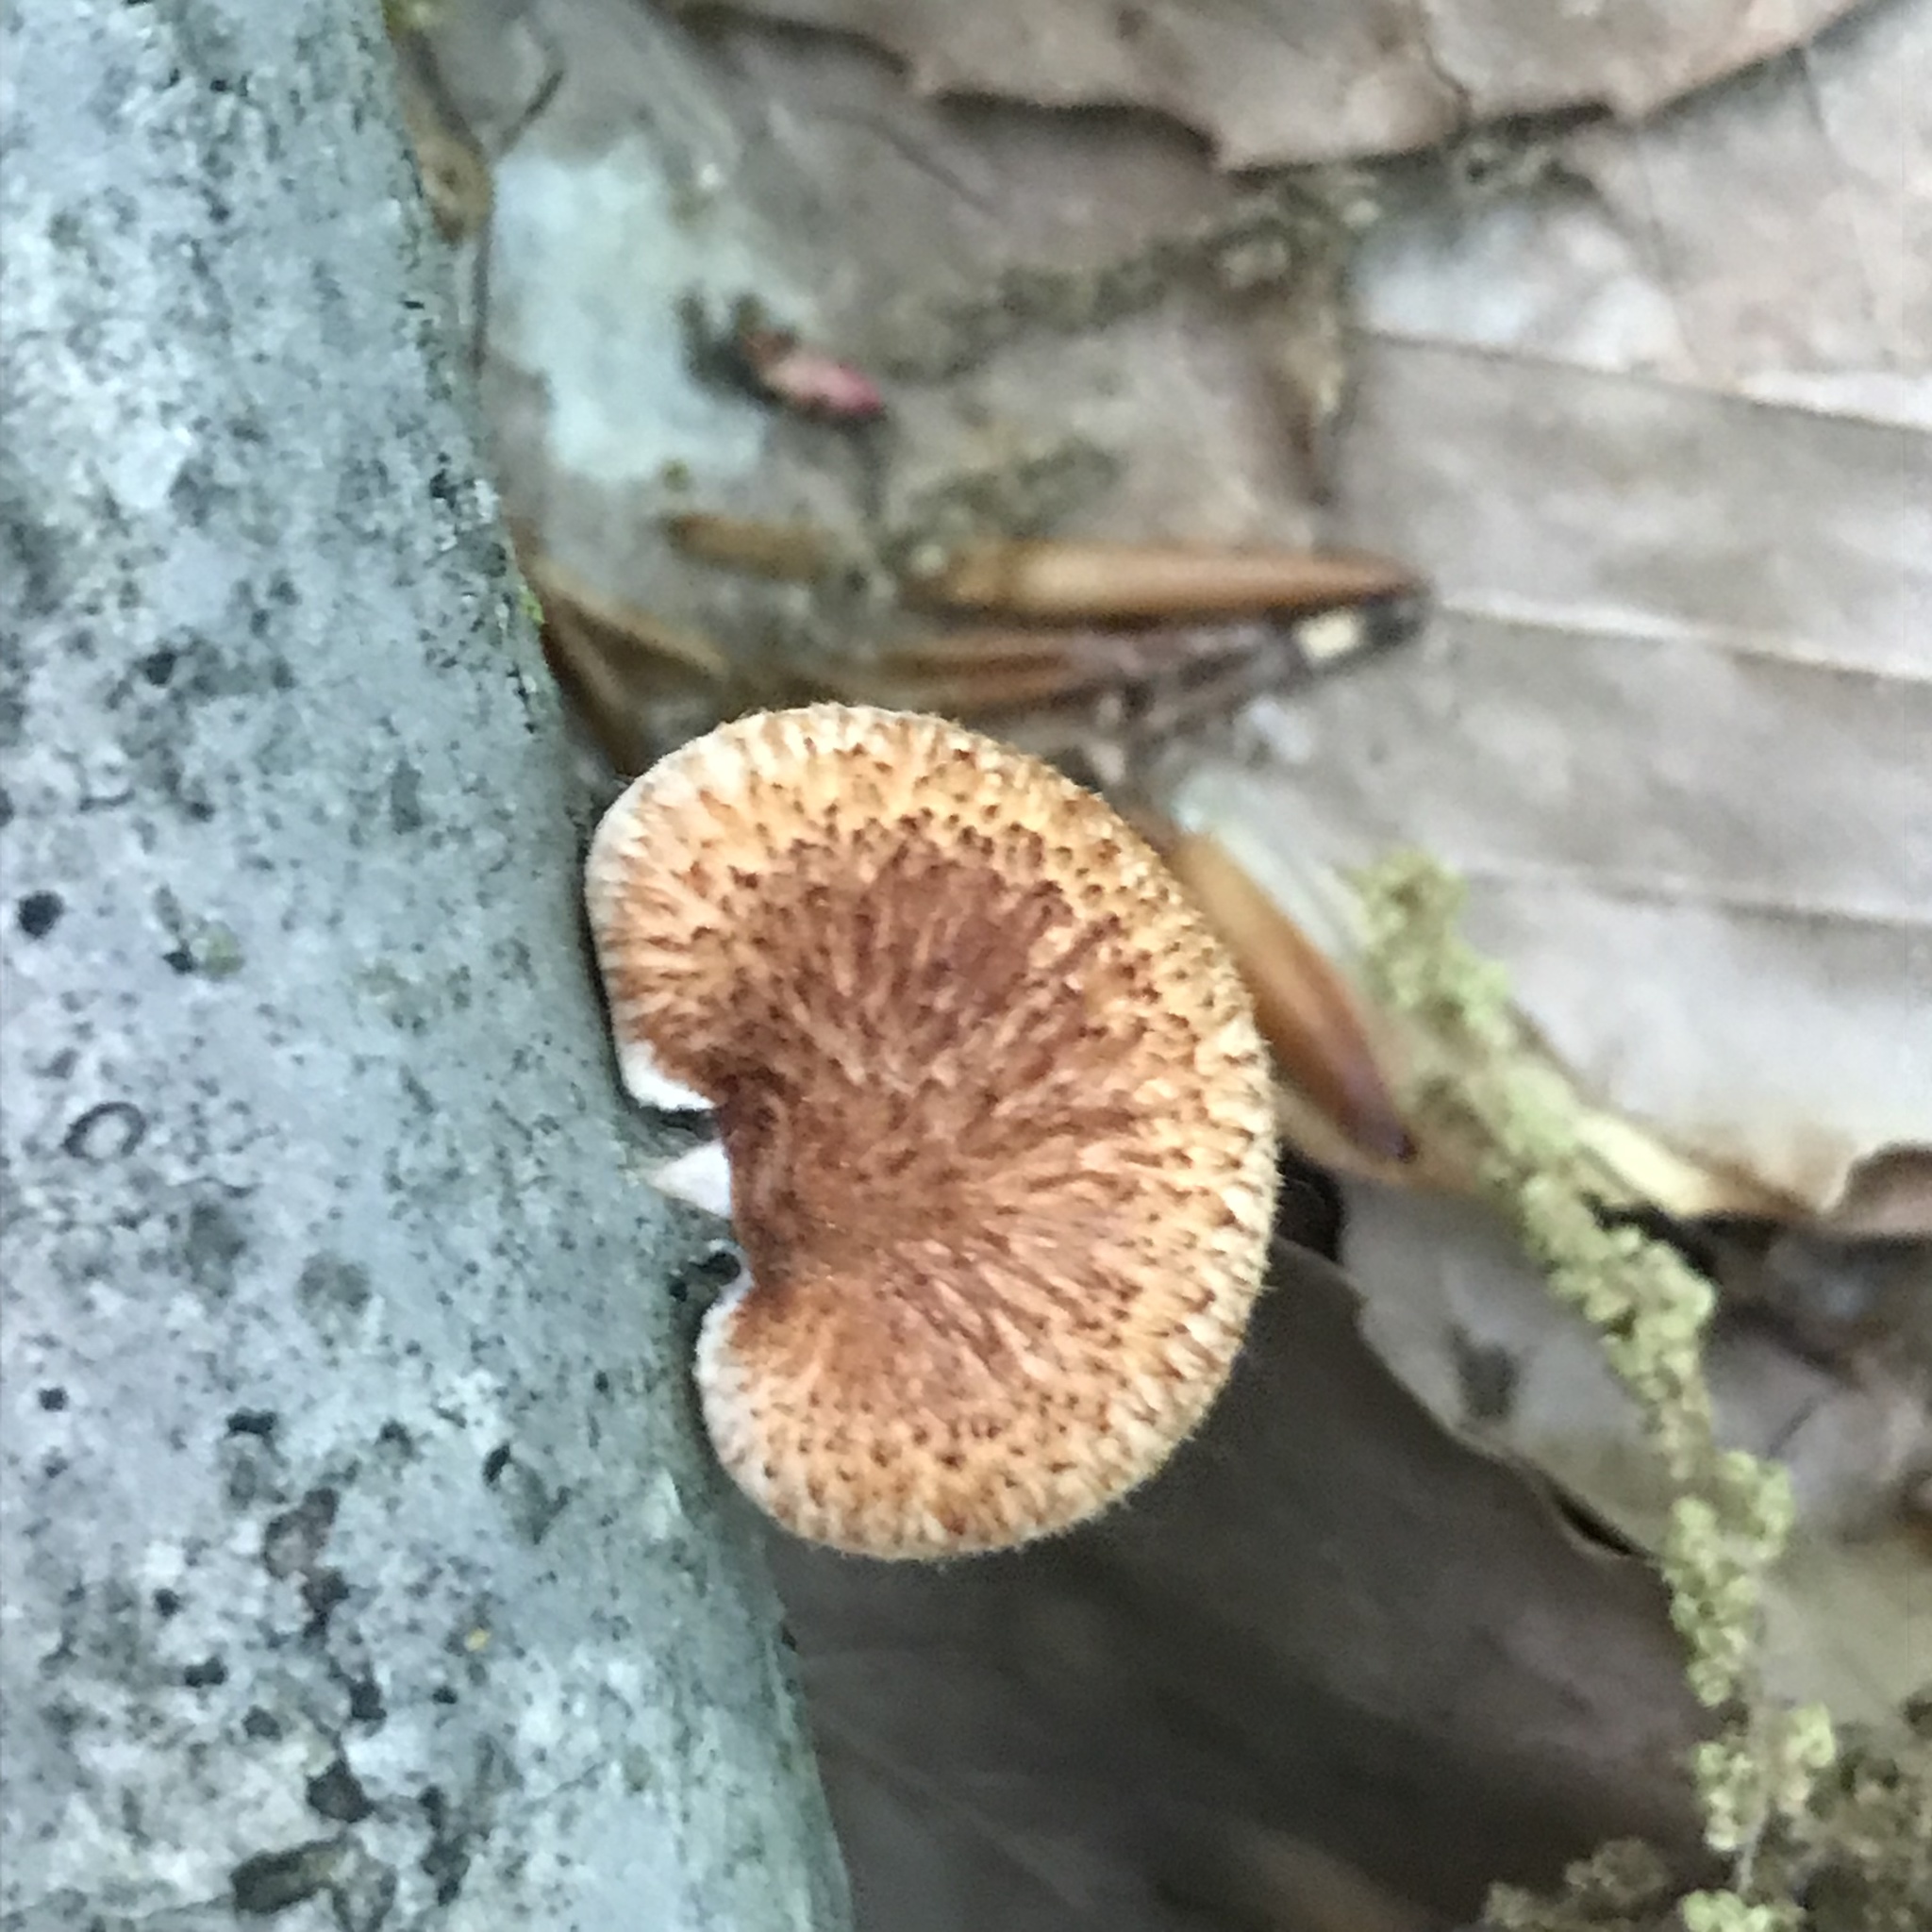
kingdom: Fungi
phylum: Basidiomycota
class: Agaricomycetes
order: Polyporales
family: Polyporaceae
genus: Neofavolus
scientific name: Neofavolus alveolaris
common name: Hexagonal-pored polypore
